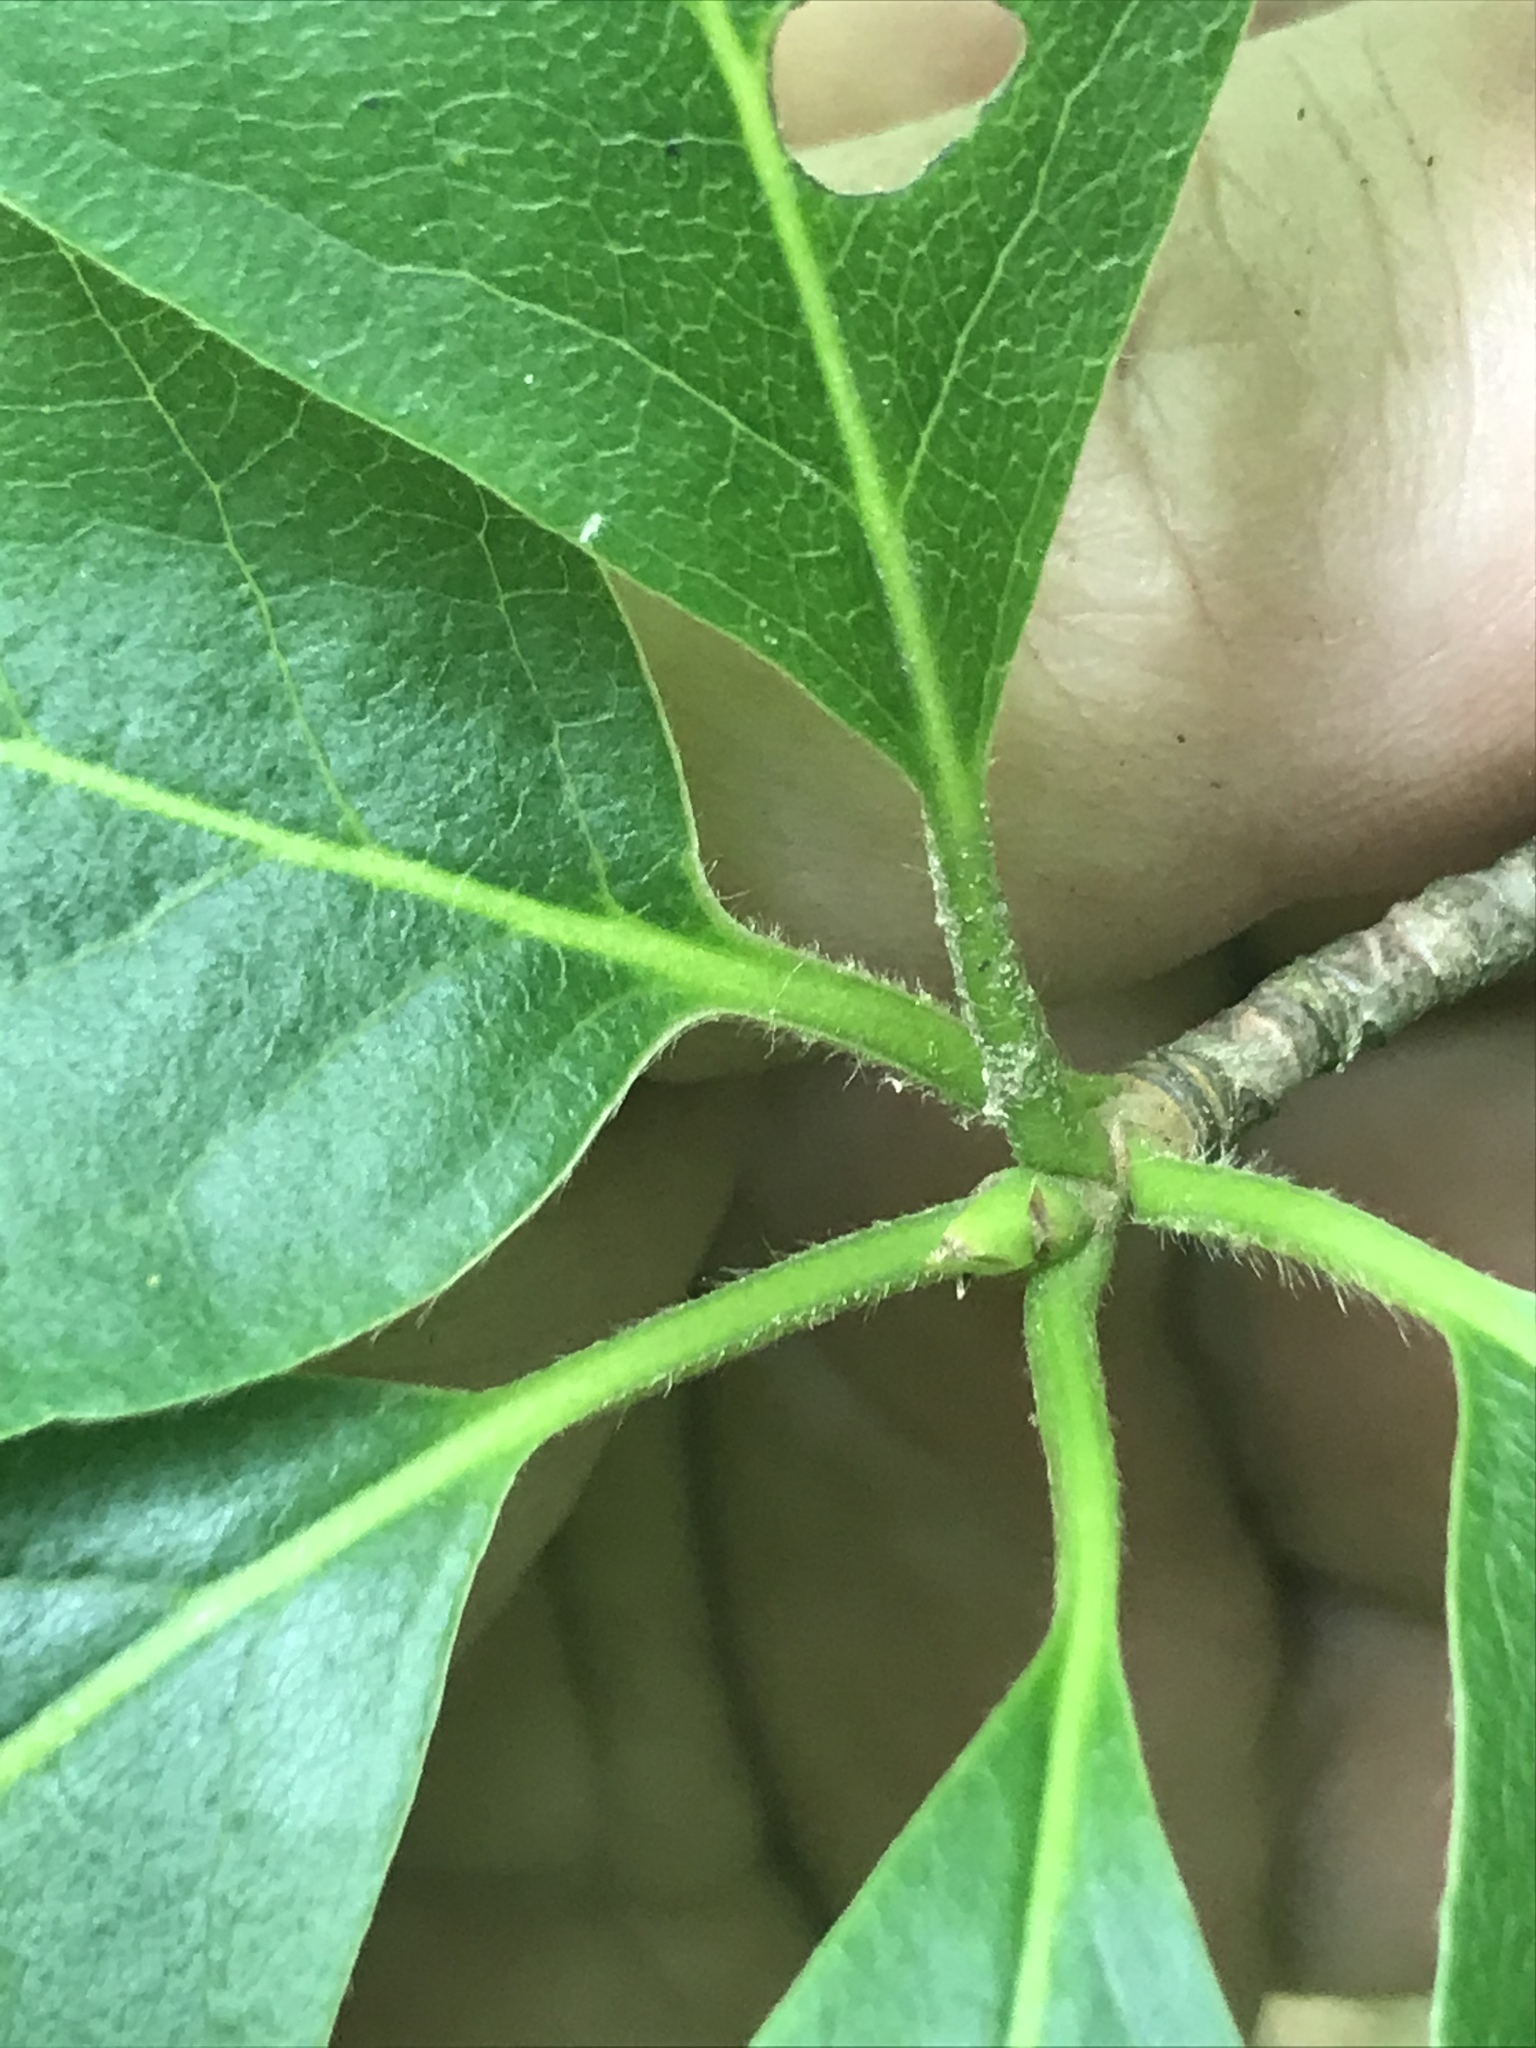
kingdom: Plantae
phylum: Tracheophyta
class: Magnoliopsida
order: Cornales
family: Nyssaceae
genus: Nyssa
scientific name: Nyssa sylvatica
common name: Black tupelo
